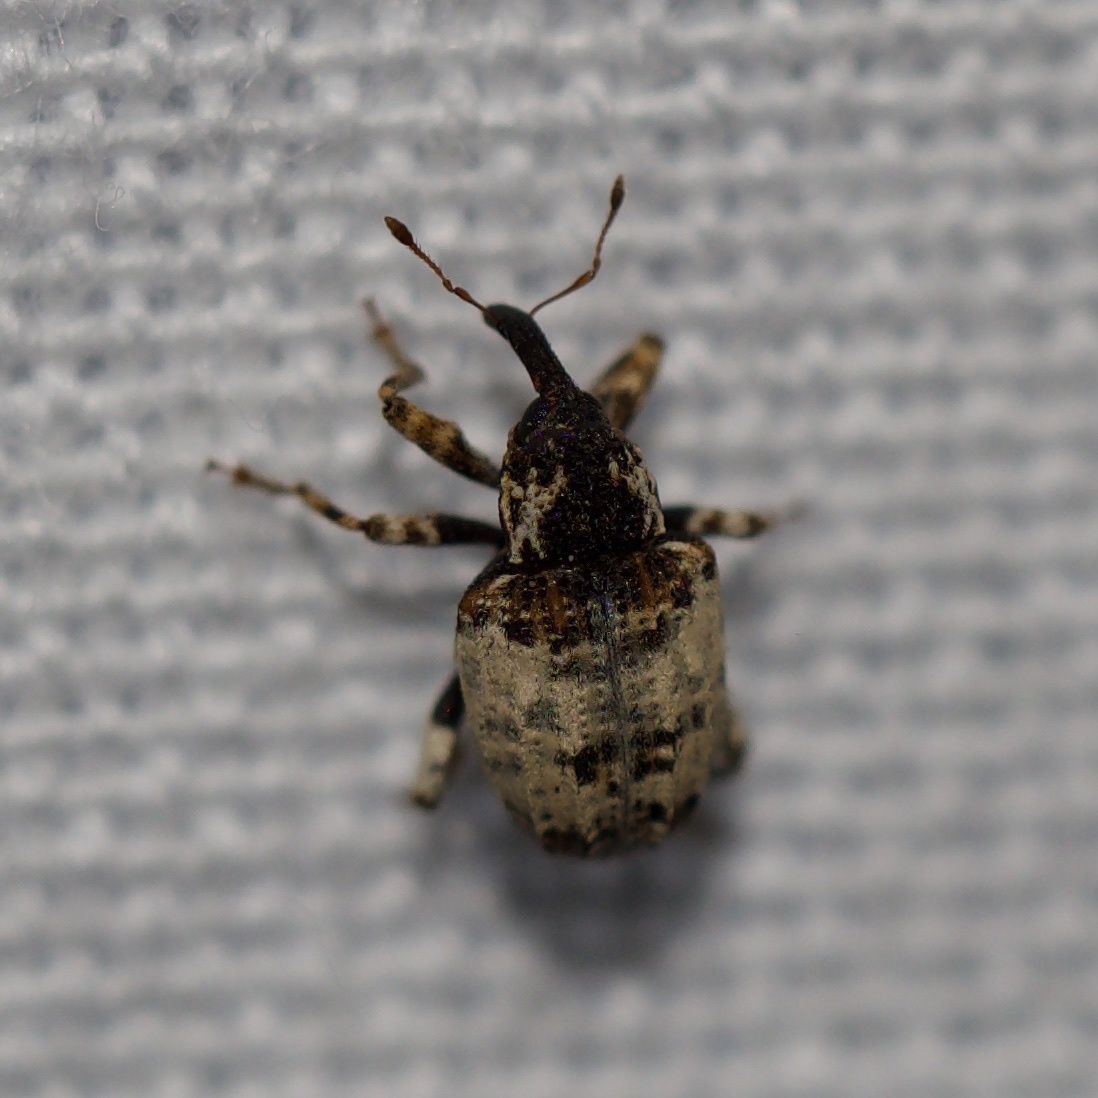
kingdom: Animalia
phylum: Arthropoda
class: Insecta
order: Coleoptera
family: Curculionidae
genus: Conotrachelus
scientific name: Conotrachelus leucophaeatus
